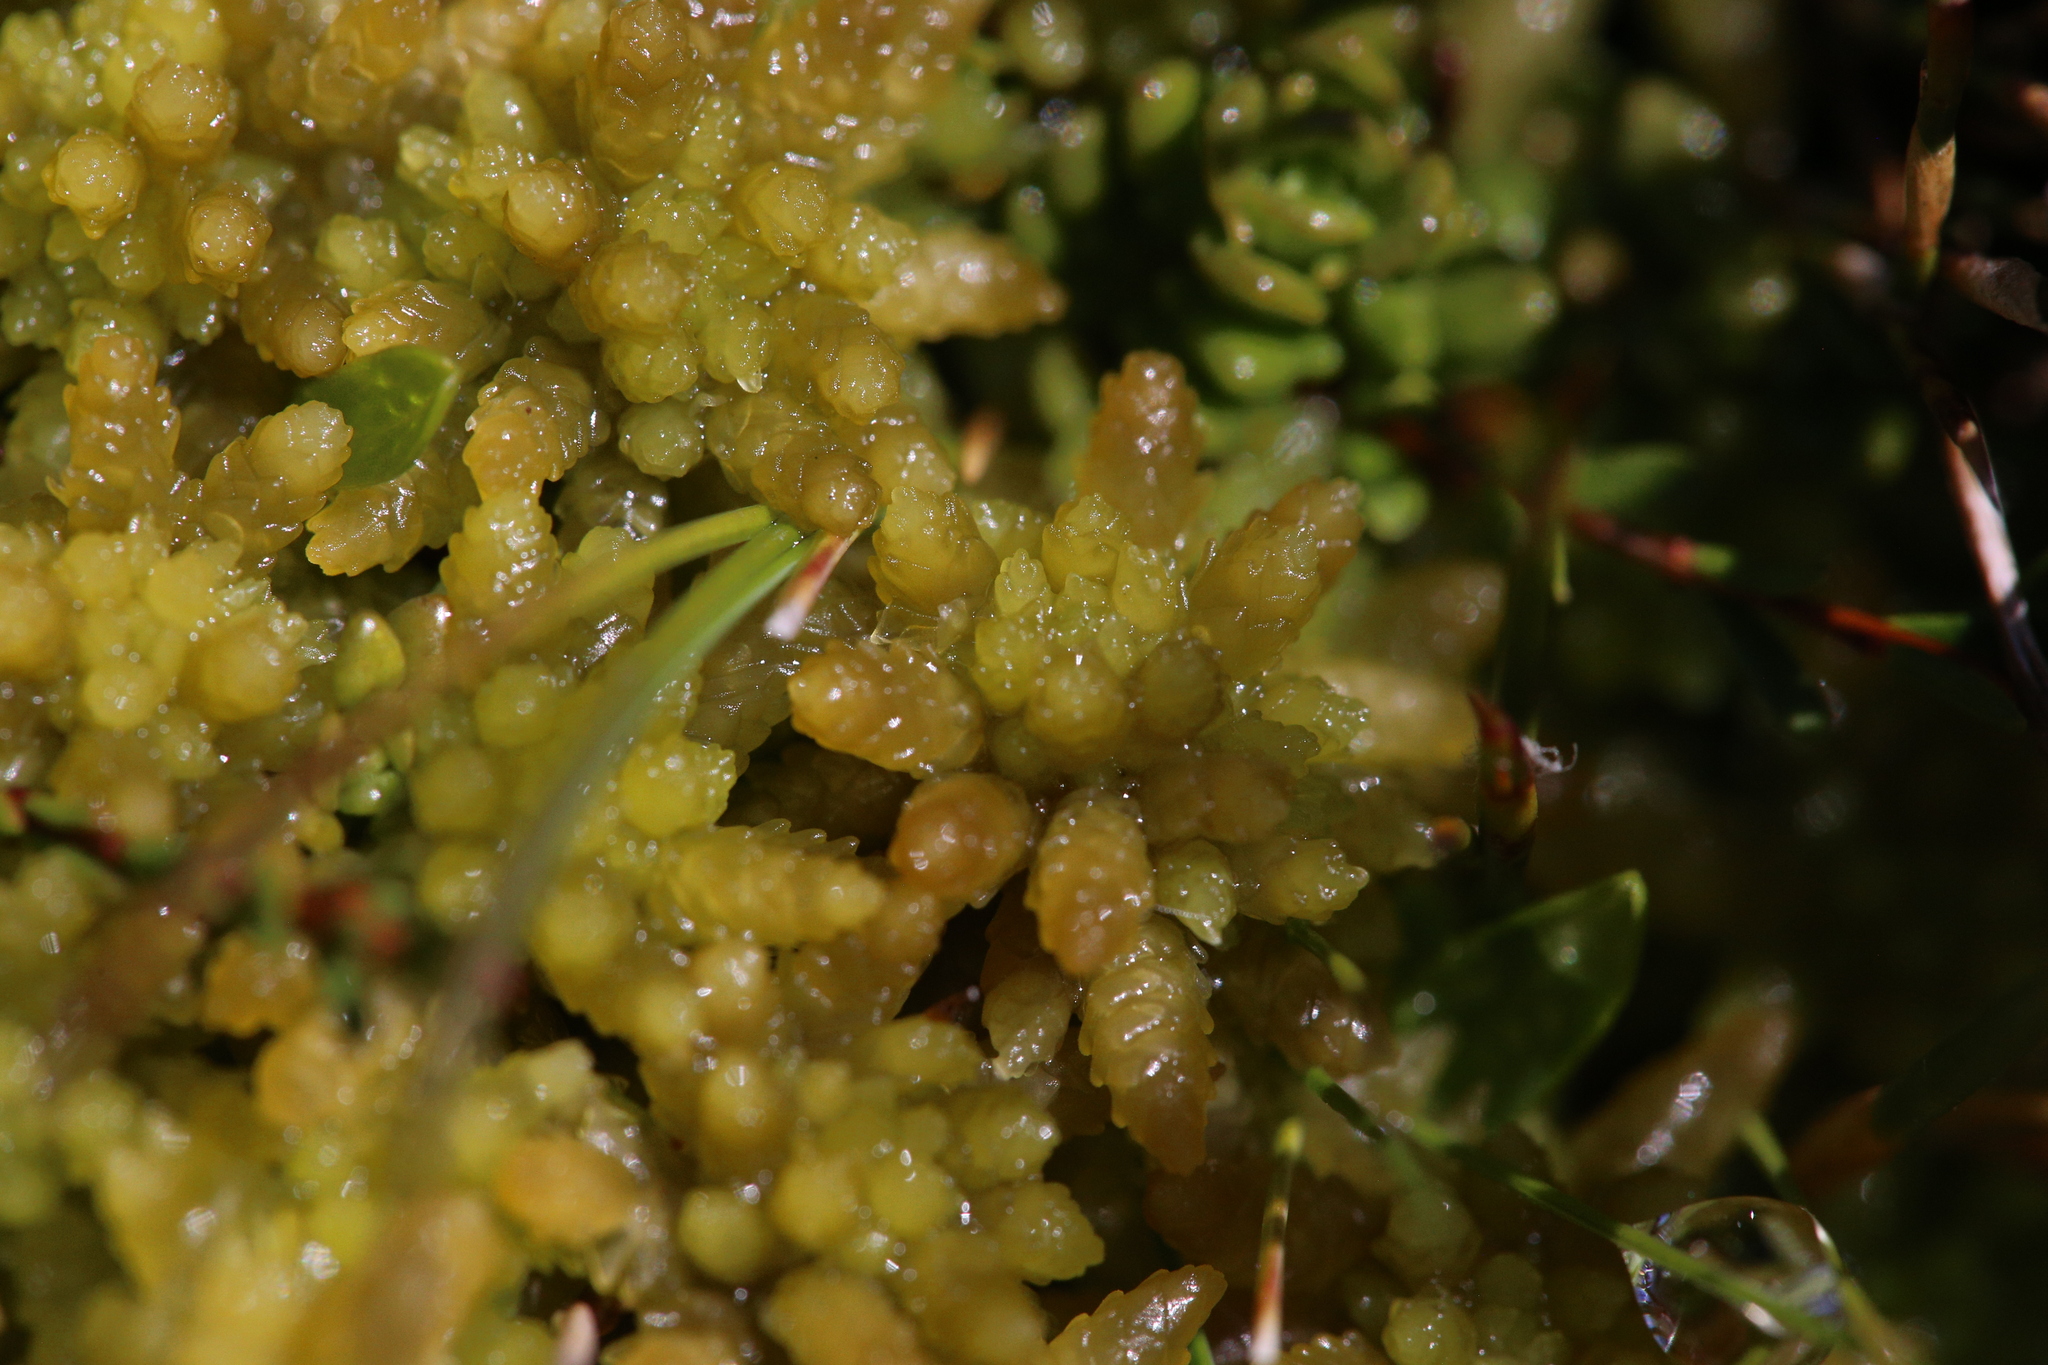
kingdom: Plantae
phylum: Bryophyta
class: Sphagnopsida
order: Sphagnales
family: Sphagnaceae
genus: Sphagnum
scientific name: Sphagnum cristatum
